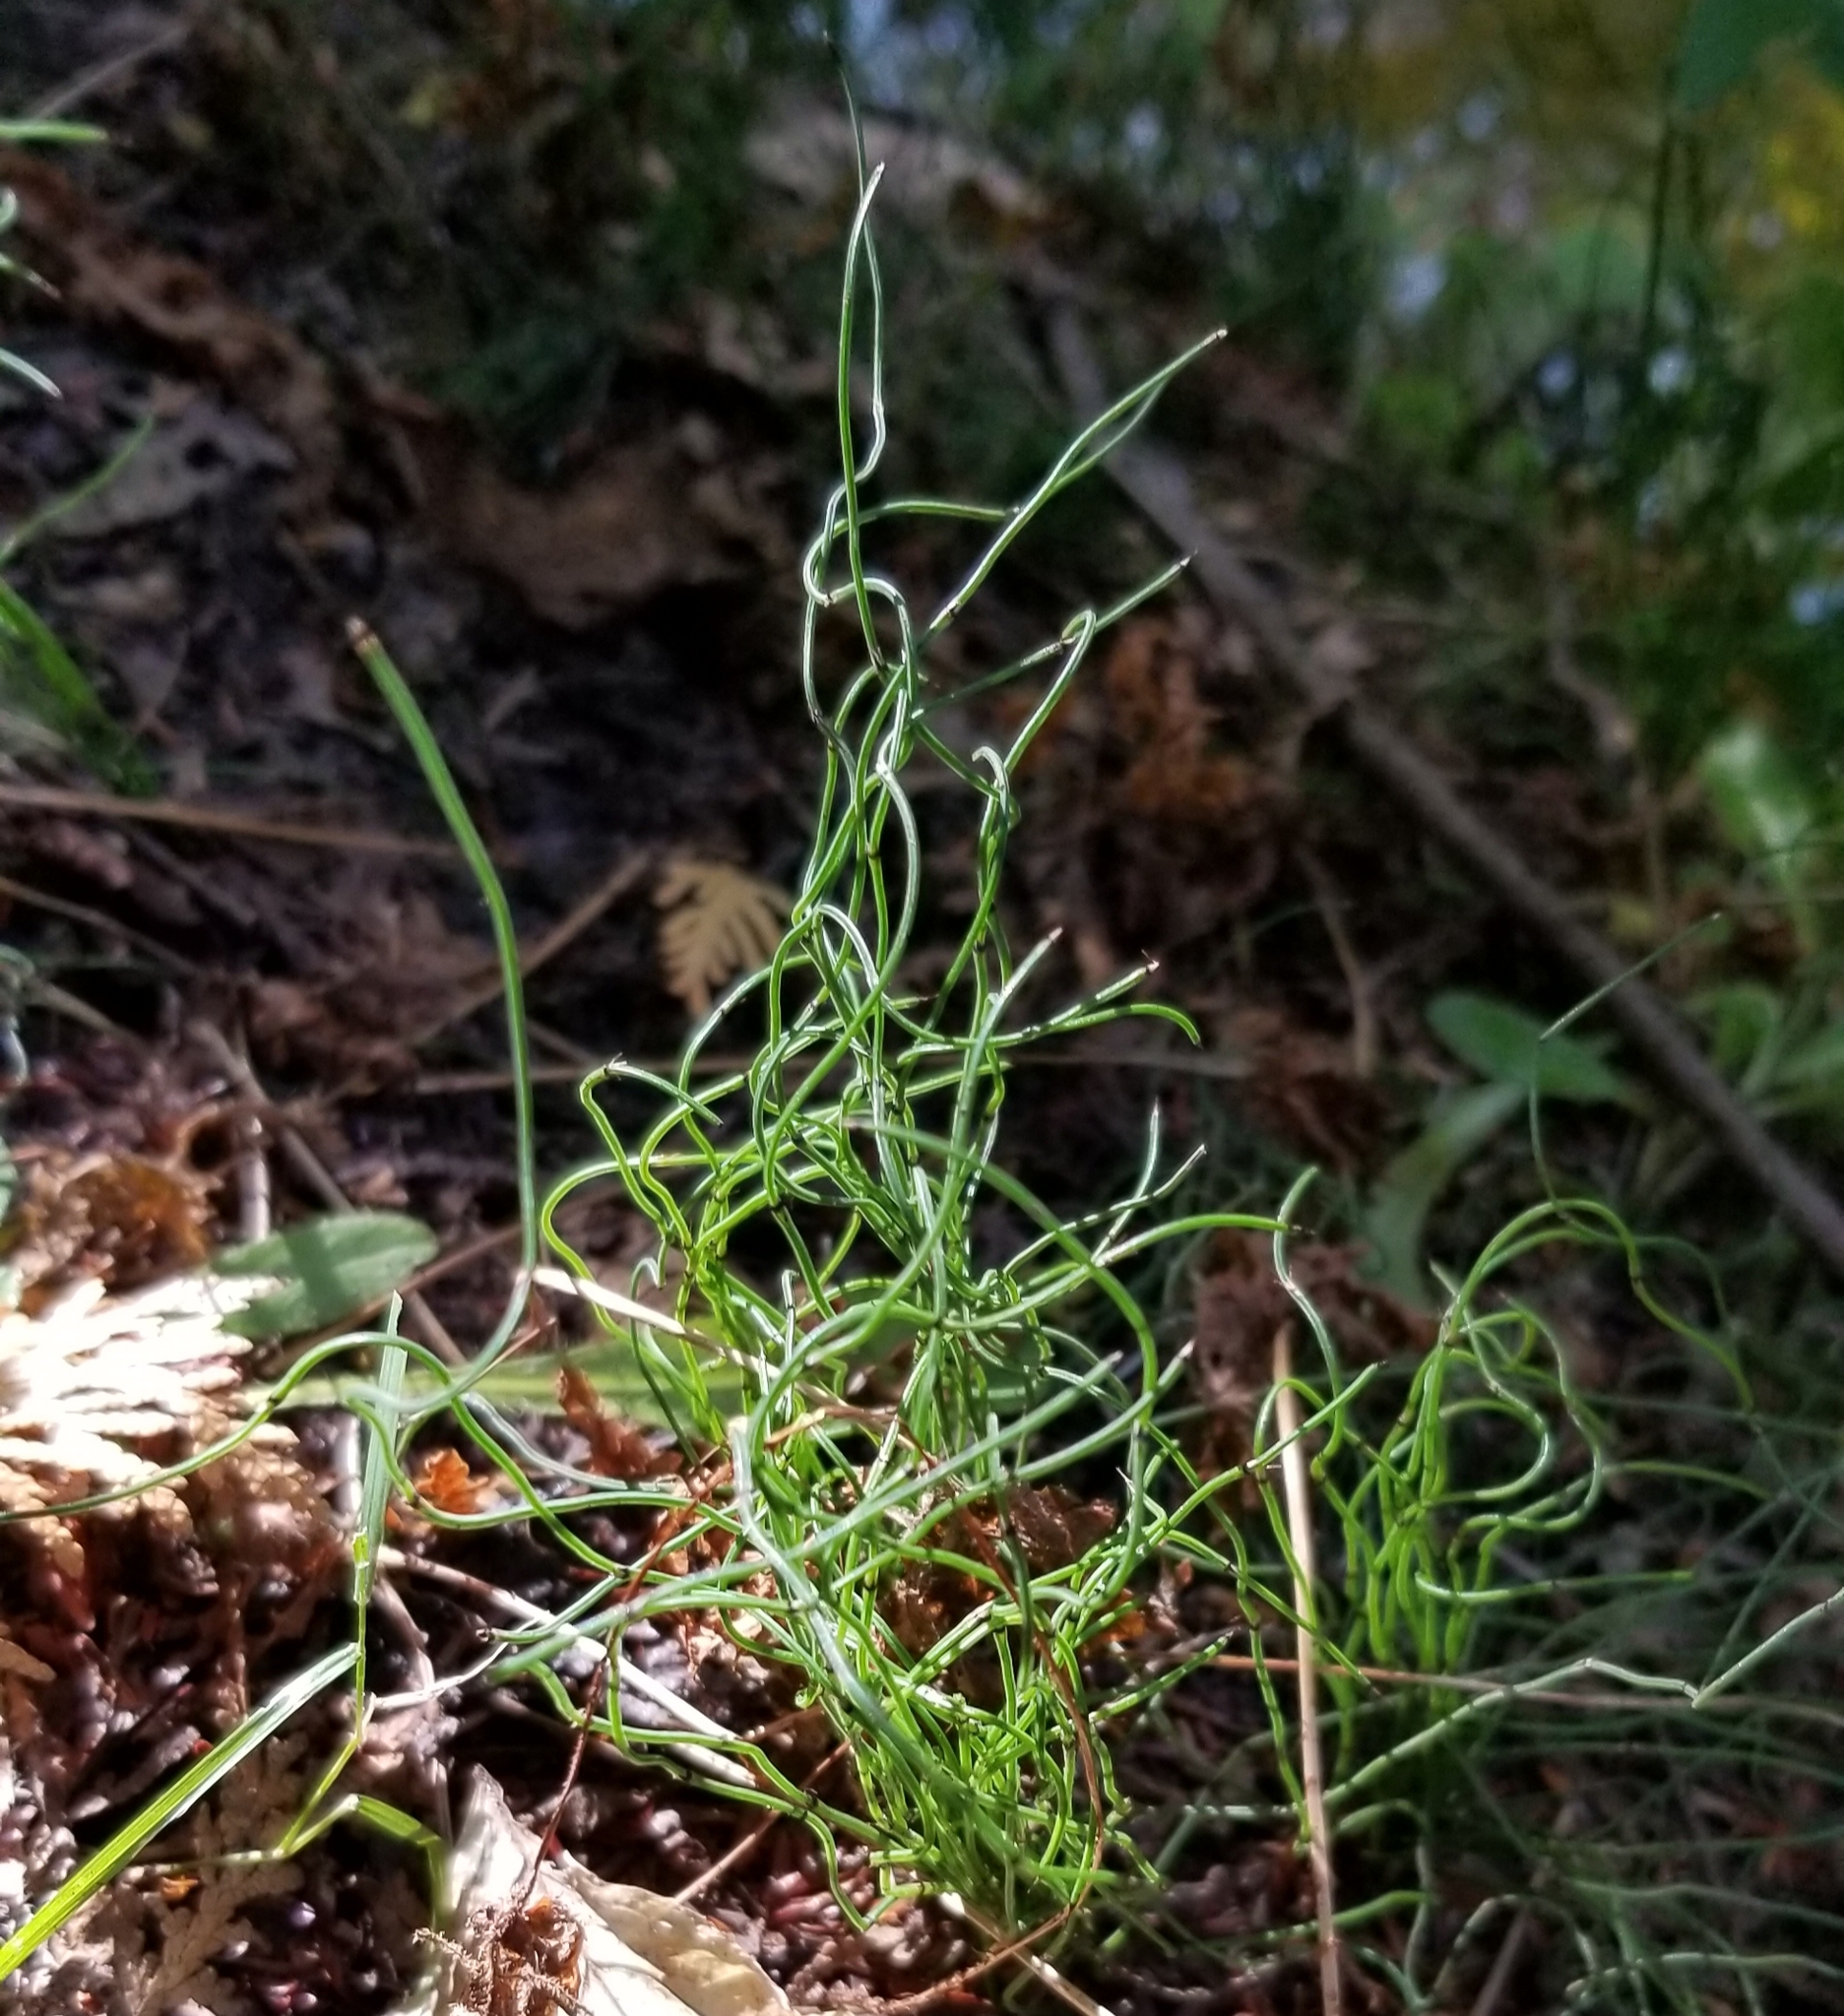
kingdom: Plantae
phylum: Tracheophyta
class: Polypodiopsida
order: Equisetales
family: Equisetaceae
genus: Equisetum
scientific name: Equisetum scirpoides
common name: Delicate horsetail
